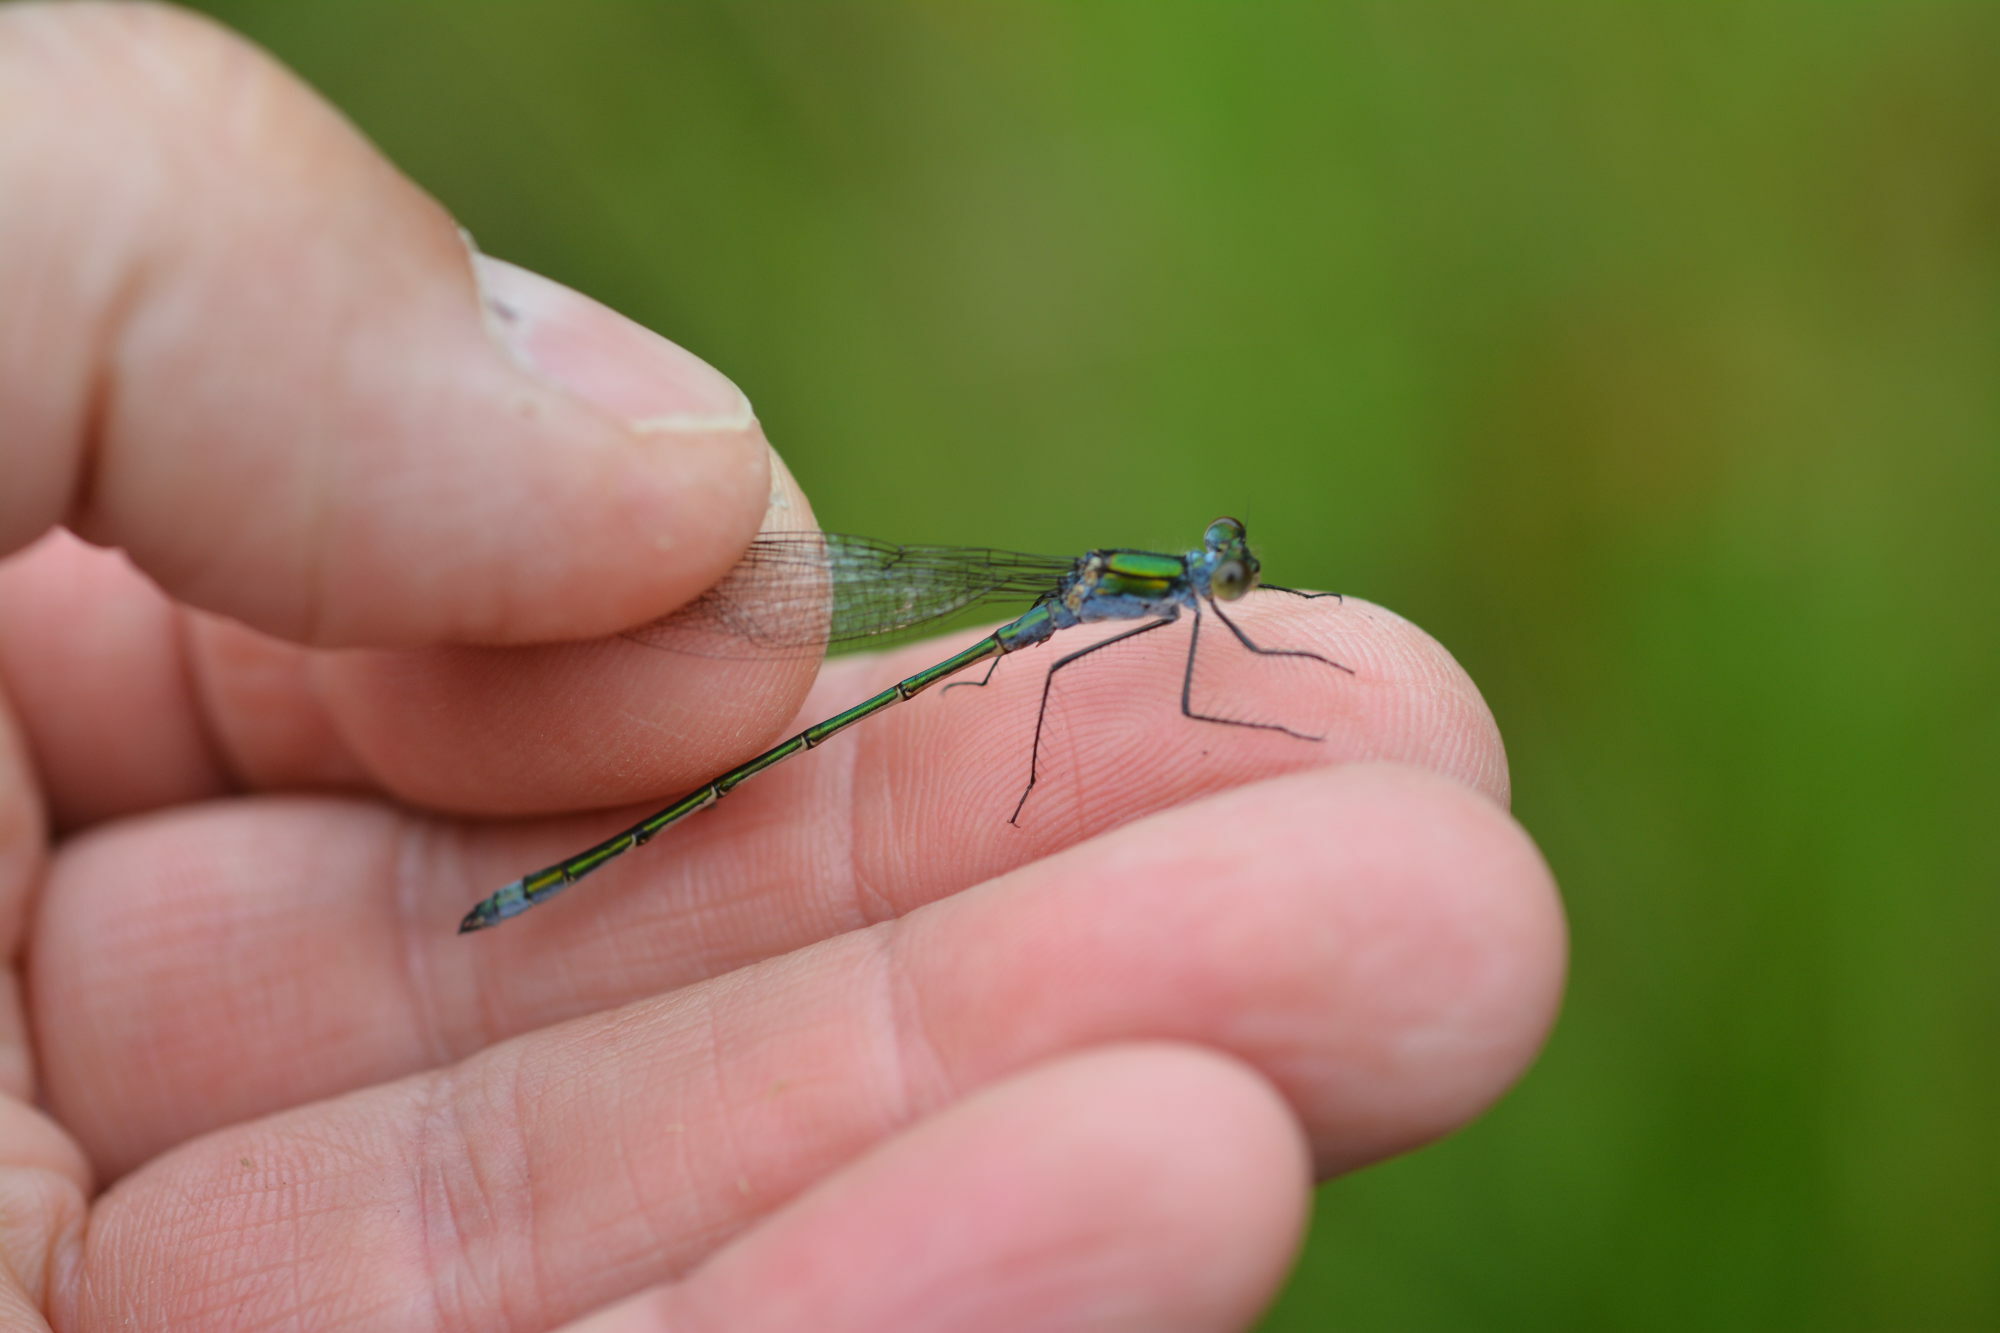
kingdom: Animalia
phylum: Arthropoda
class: Insecta
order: Odonata
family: Lestidae
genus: Lestes
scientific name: Lestes sponsa
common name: Common spreadwing
